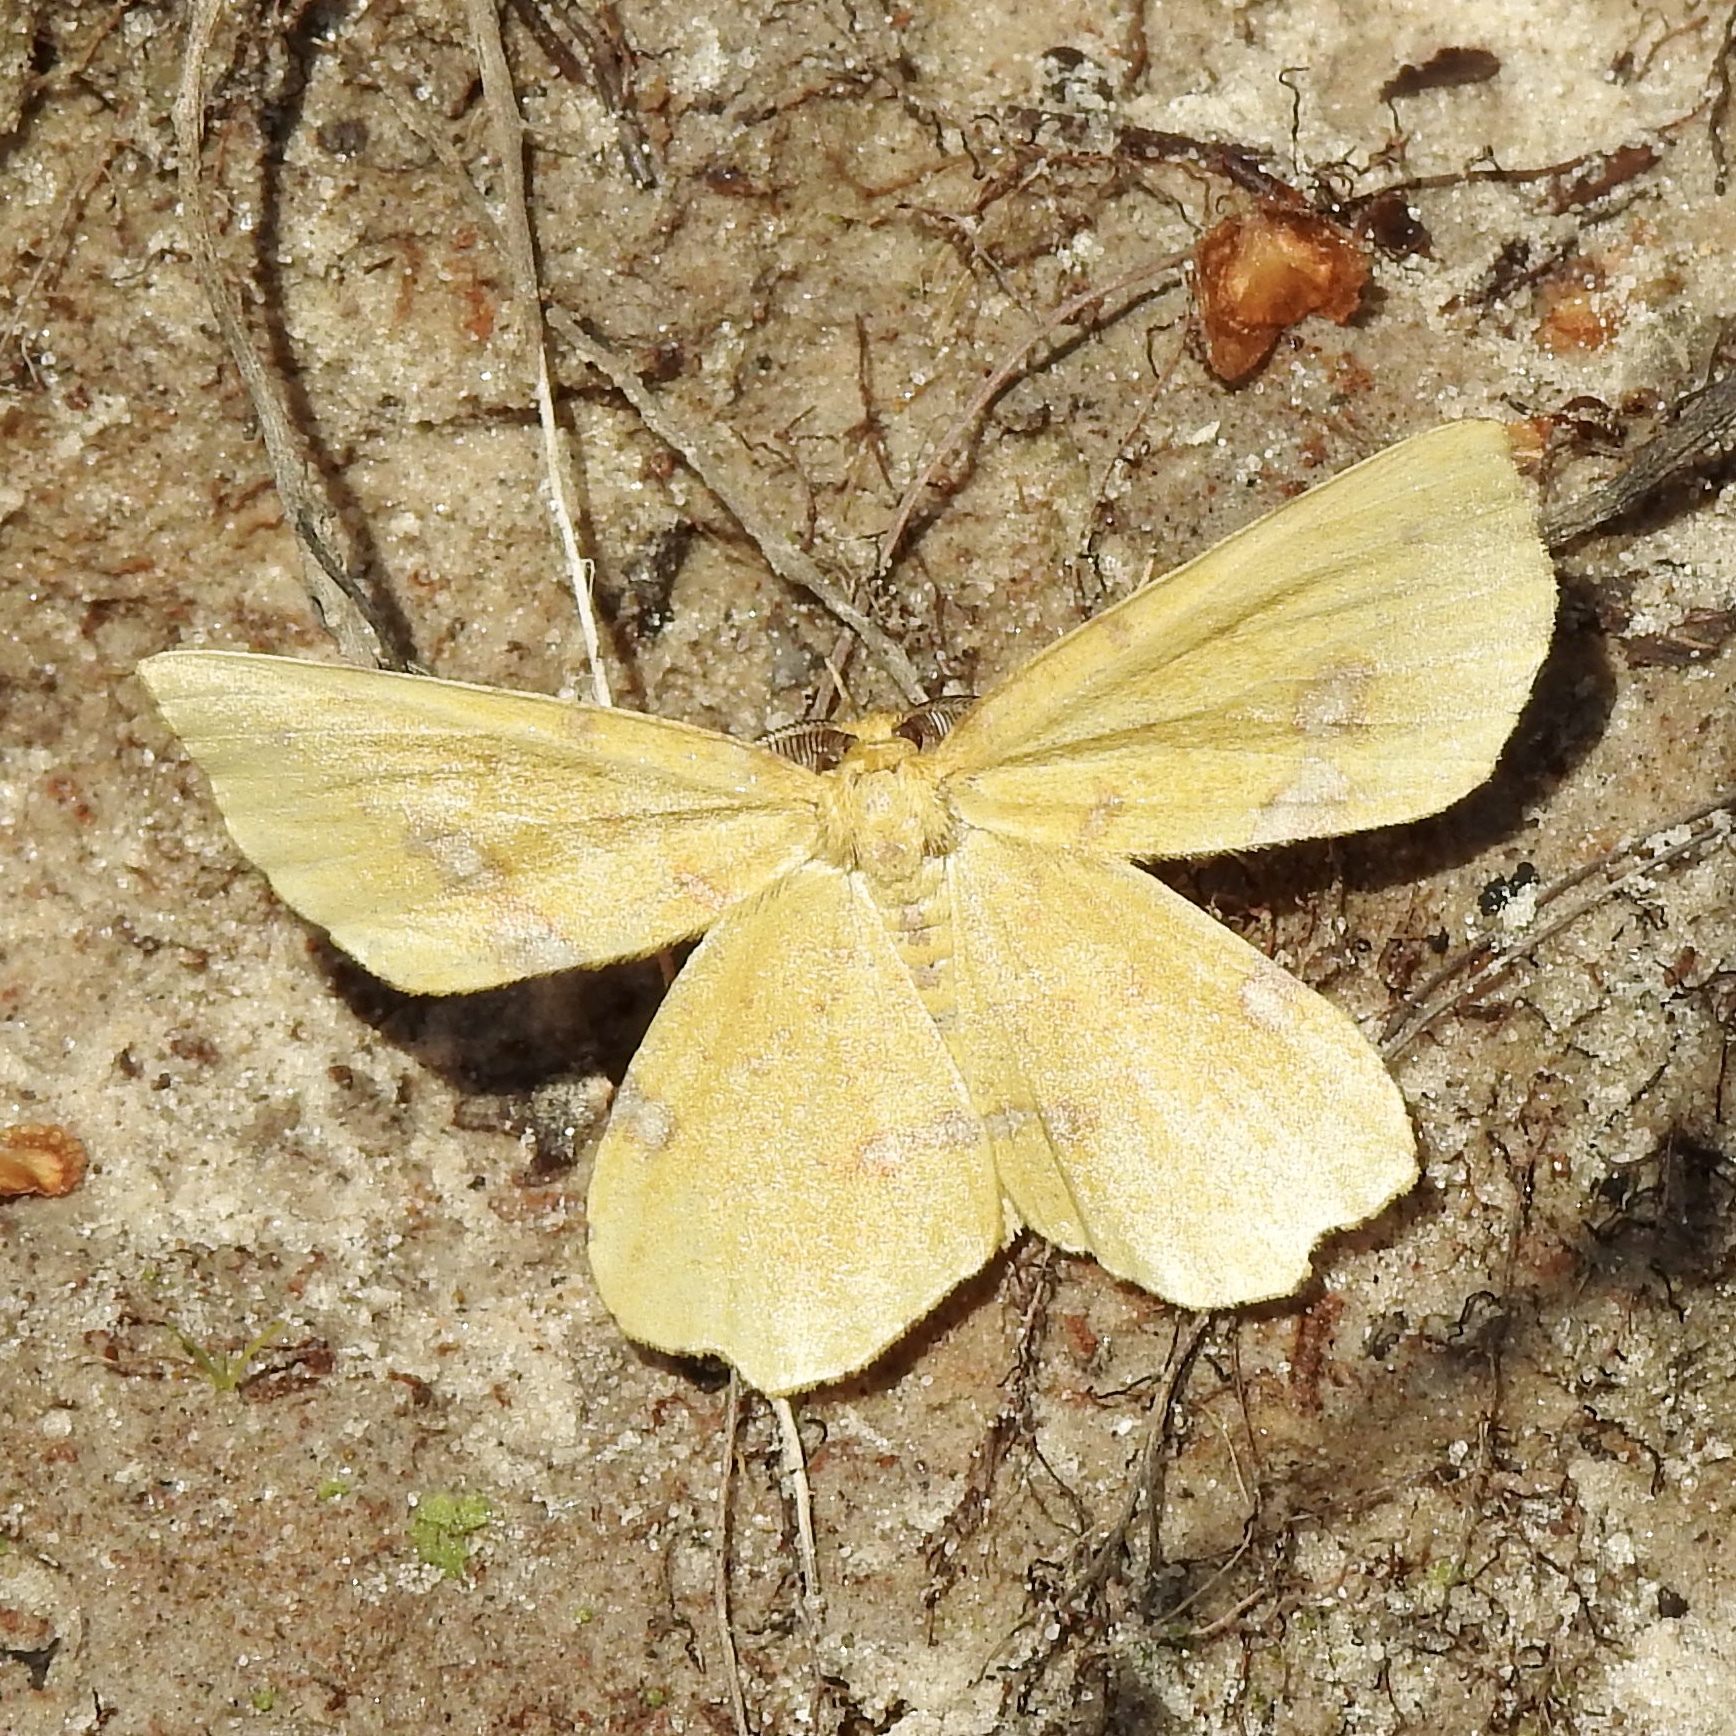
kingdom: Animalia
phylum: Arthropoda
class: Insecta
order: Lepidoptera
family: Geometridae
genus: Xanthotype
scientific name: Xanthotype
